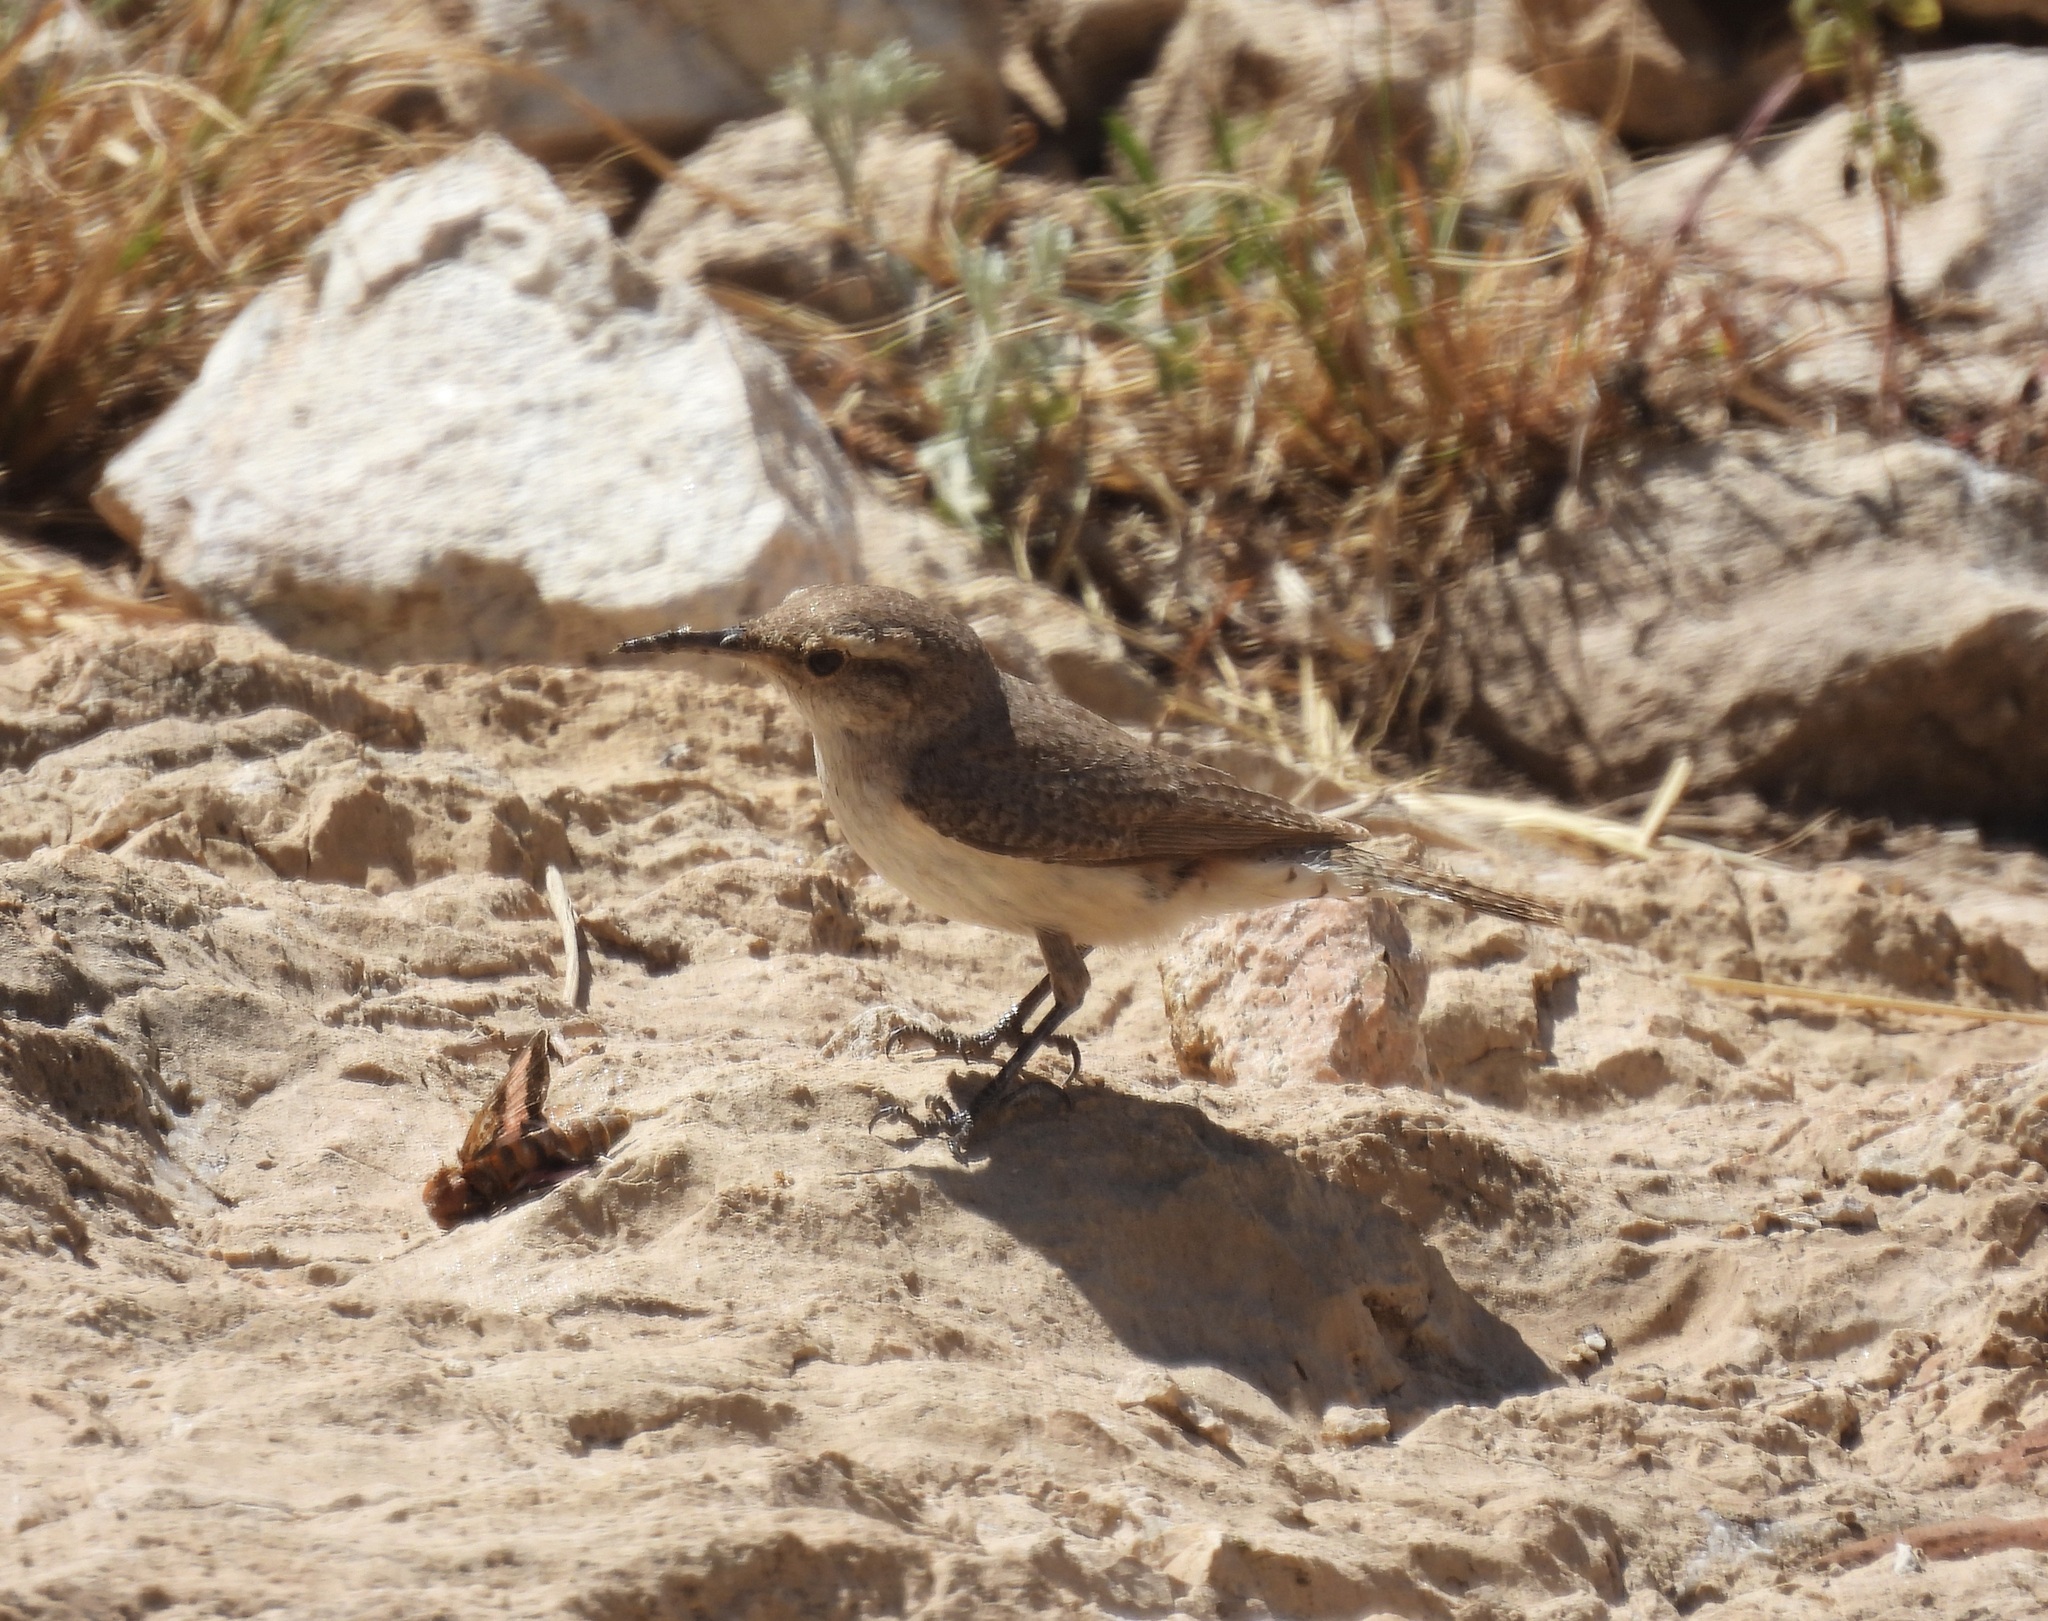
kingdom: Animalia
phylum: Chordata
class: Aves
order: Passeriformes
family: Troglodytidae
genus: Salpinctes
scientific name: Salpinctes obsoletus
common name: Rock wren
